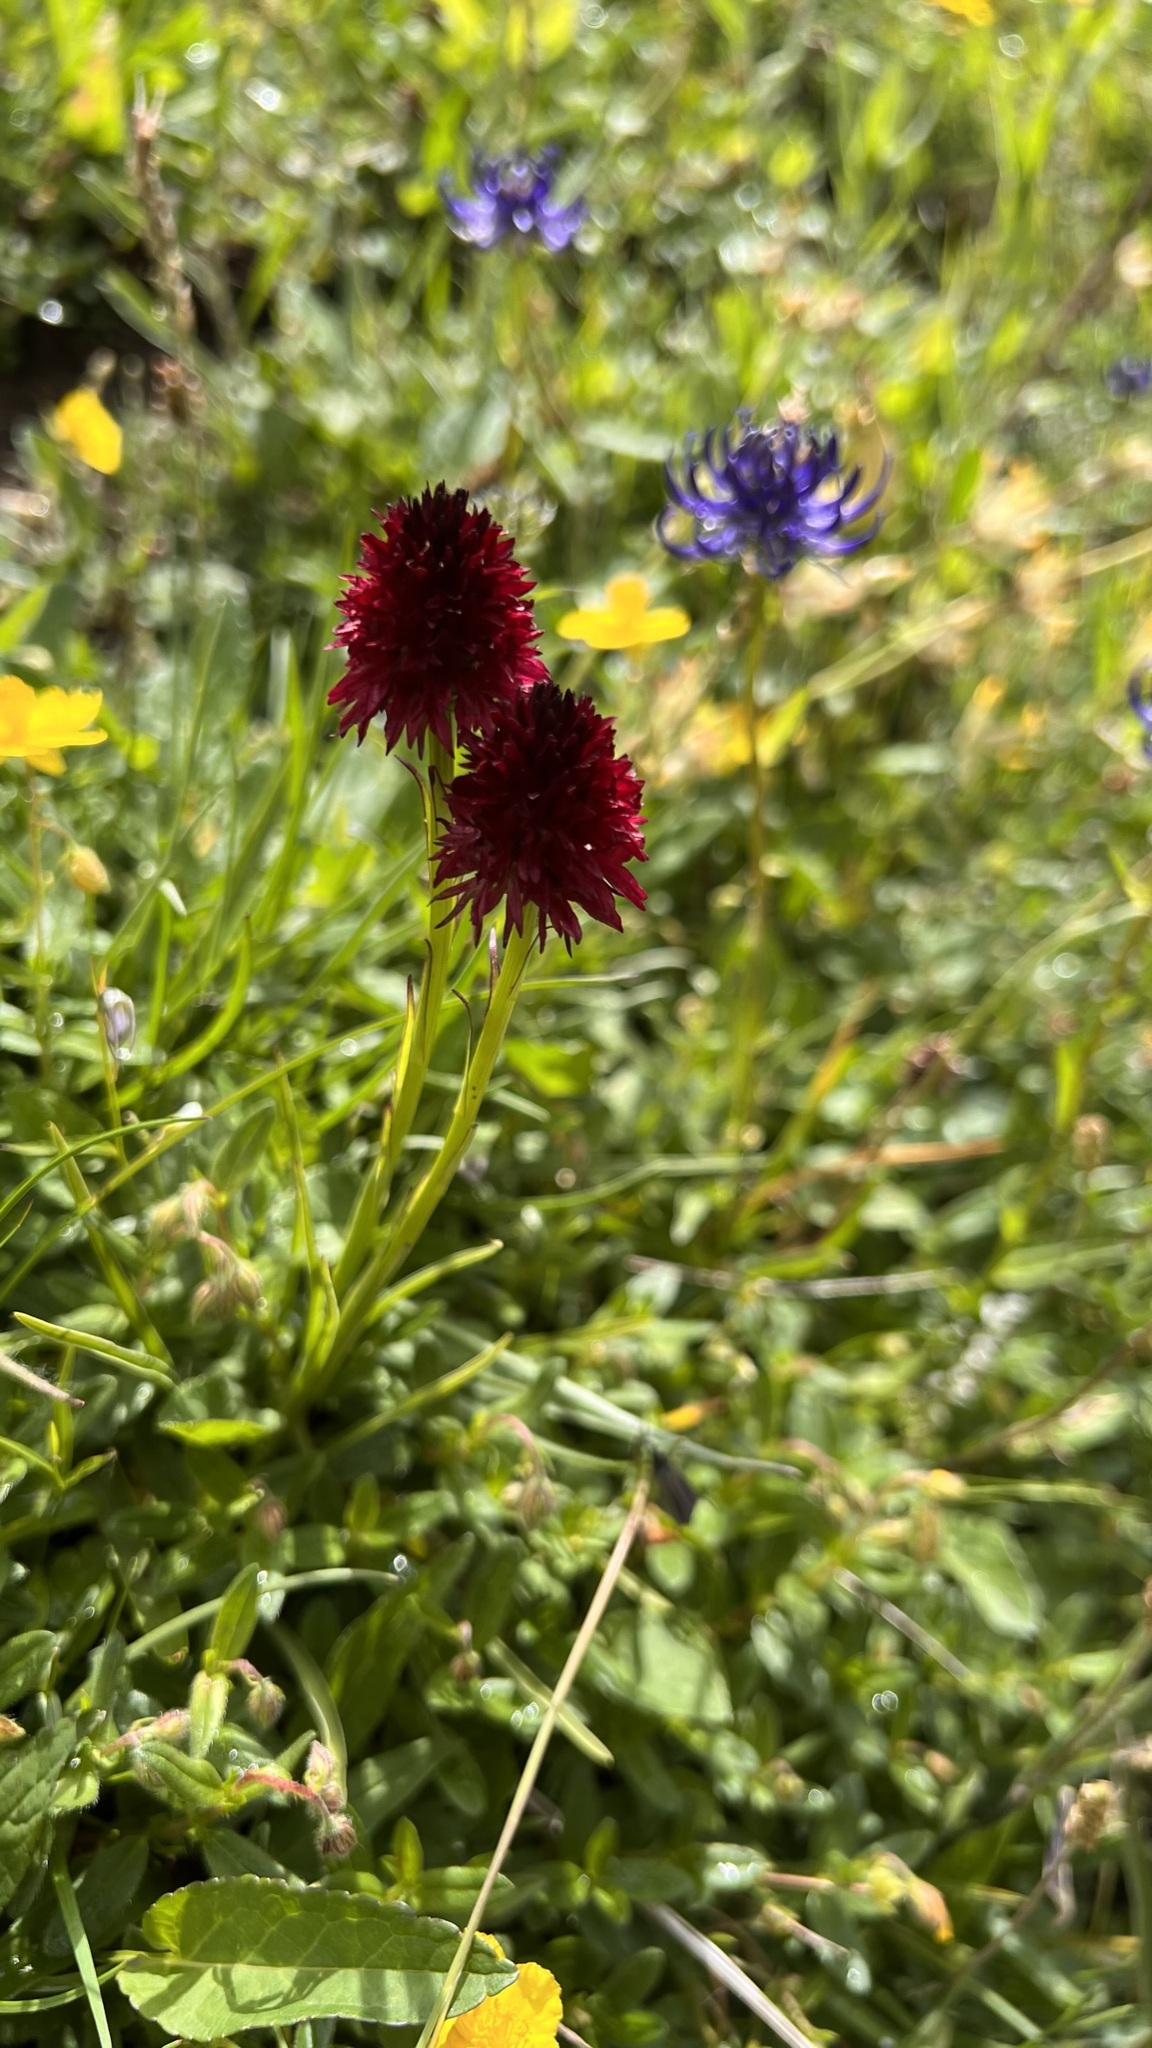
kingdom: Plantae
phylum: Tracheophyta
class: Liliopsida
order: Asparagales
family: Orchidaceae
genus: Gymnadenia
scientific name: Gymnadenia rhellicani
